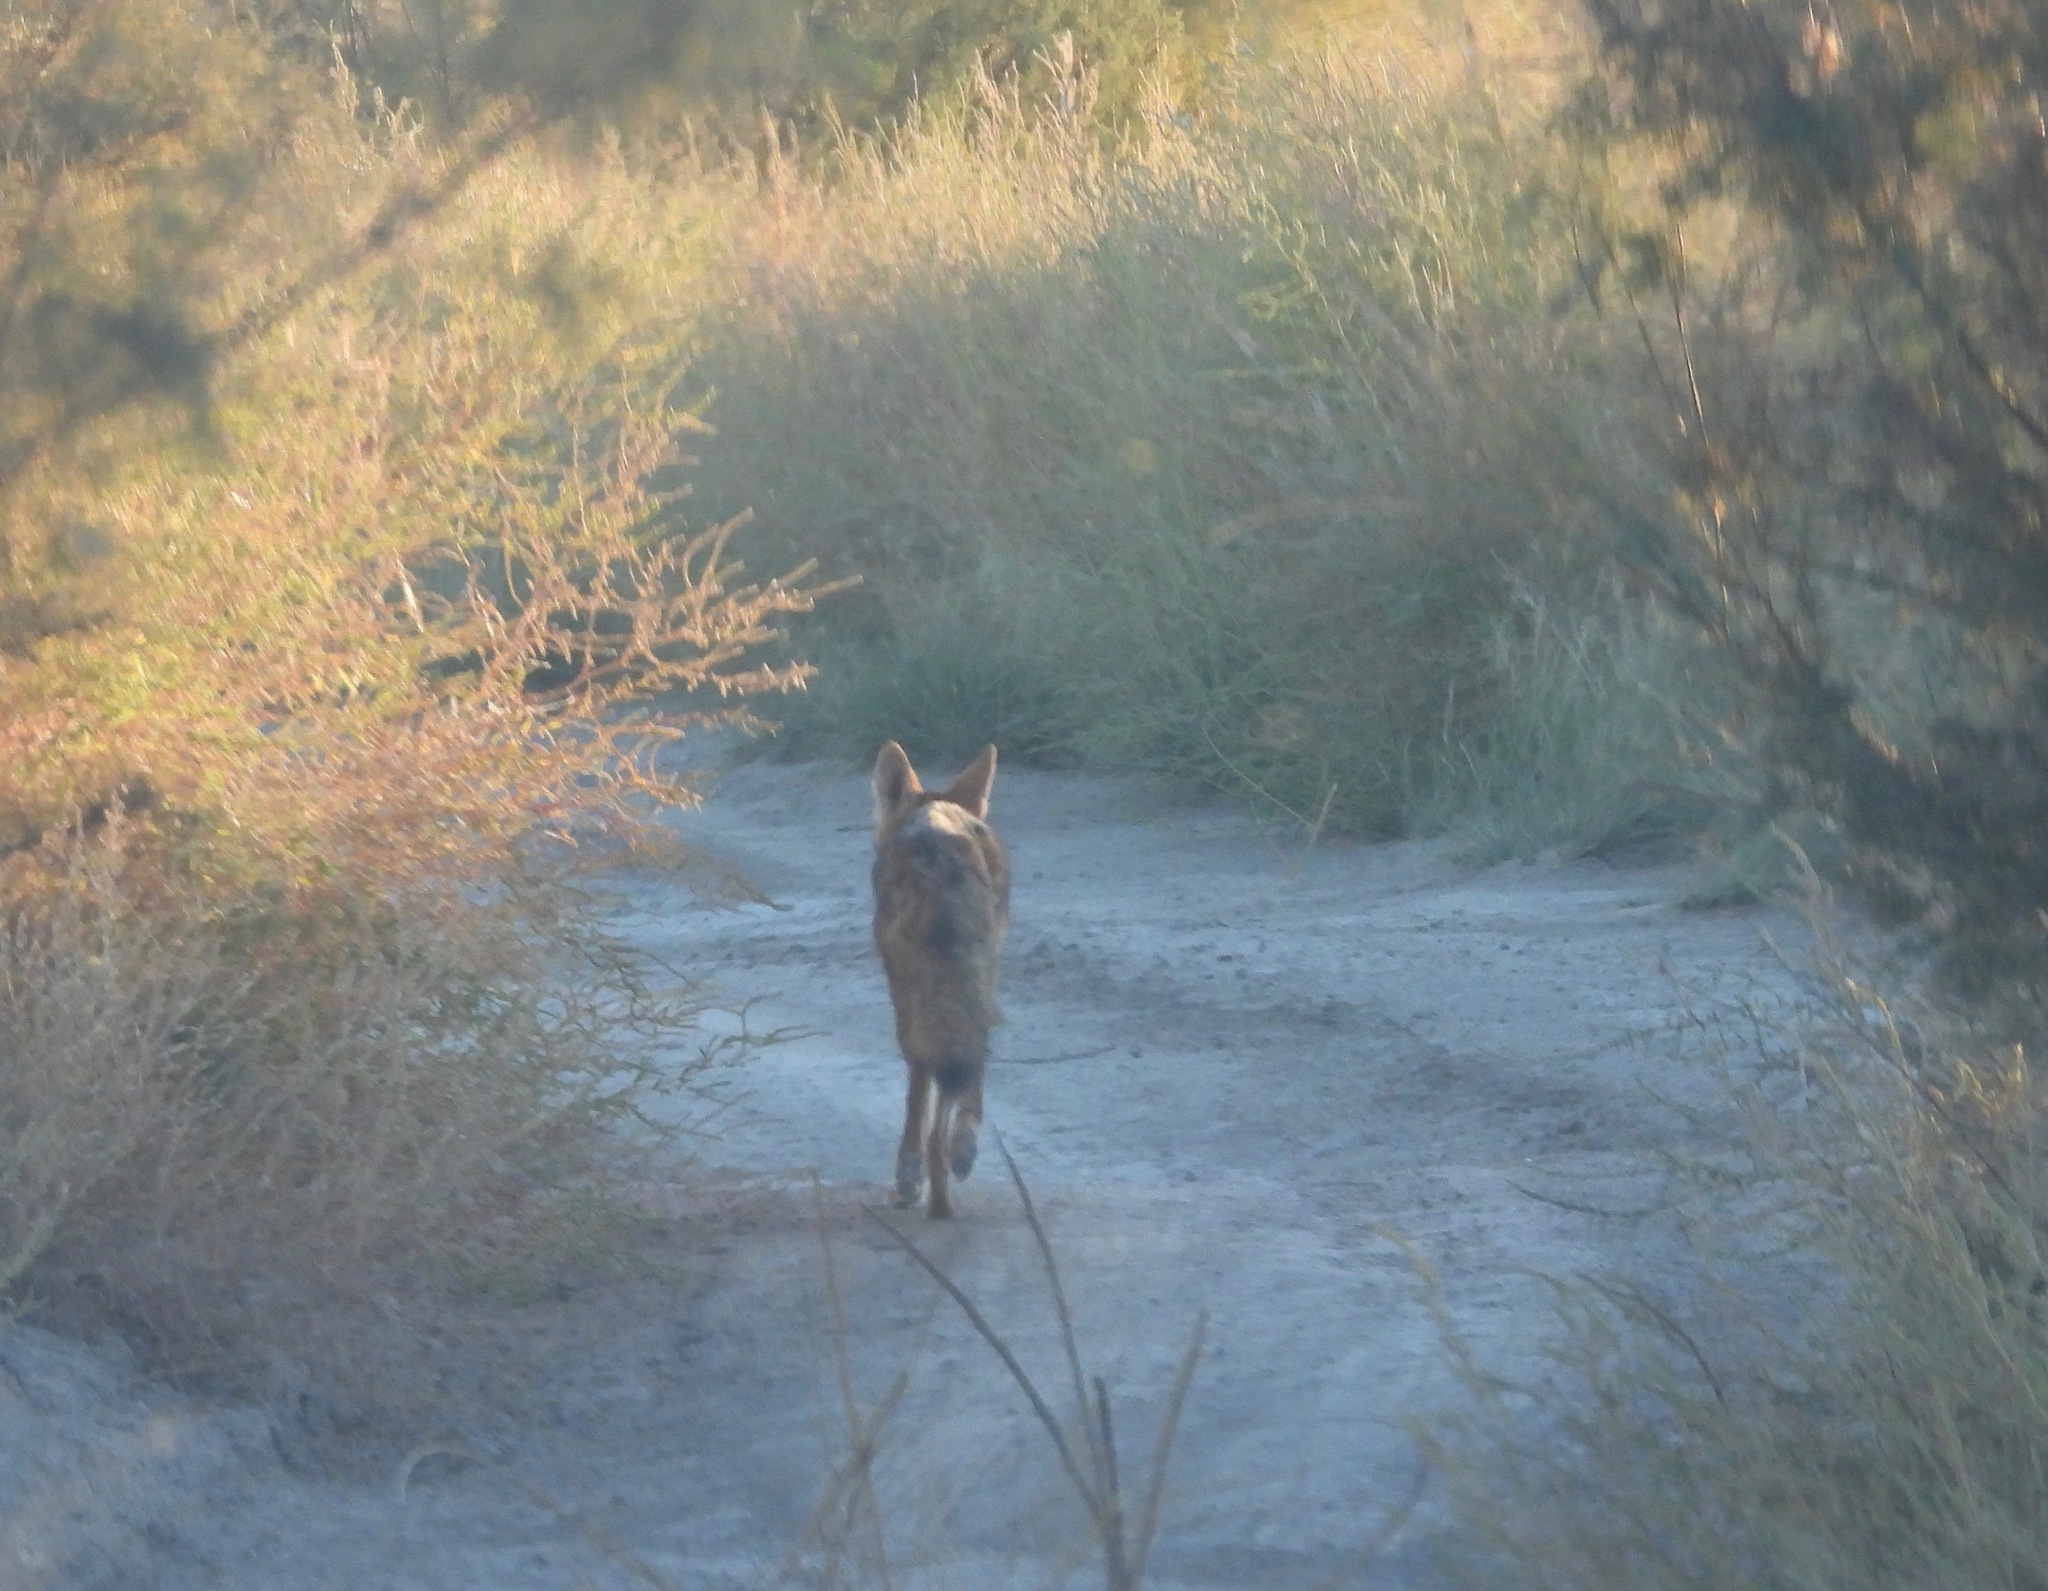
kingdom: Animalia
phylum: Chordata
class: Mammalia
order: Carnivora
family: Canidae
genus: Canis
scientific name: Canis latrans
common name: Coyote
